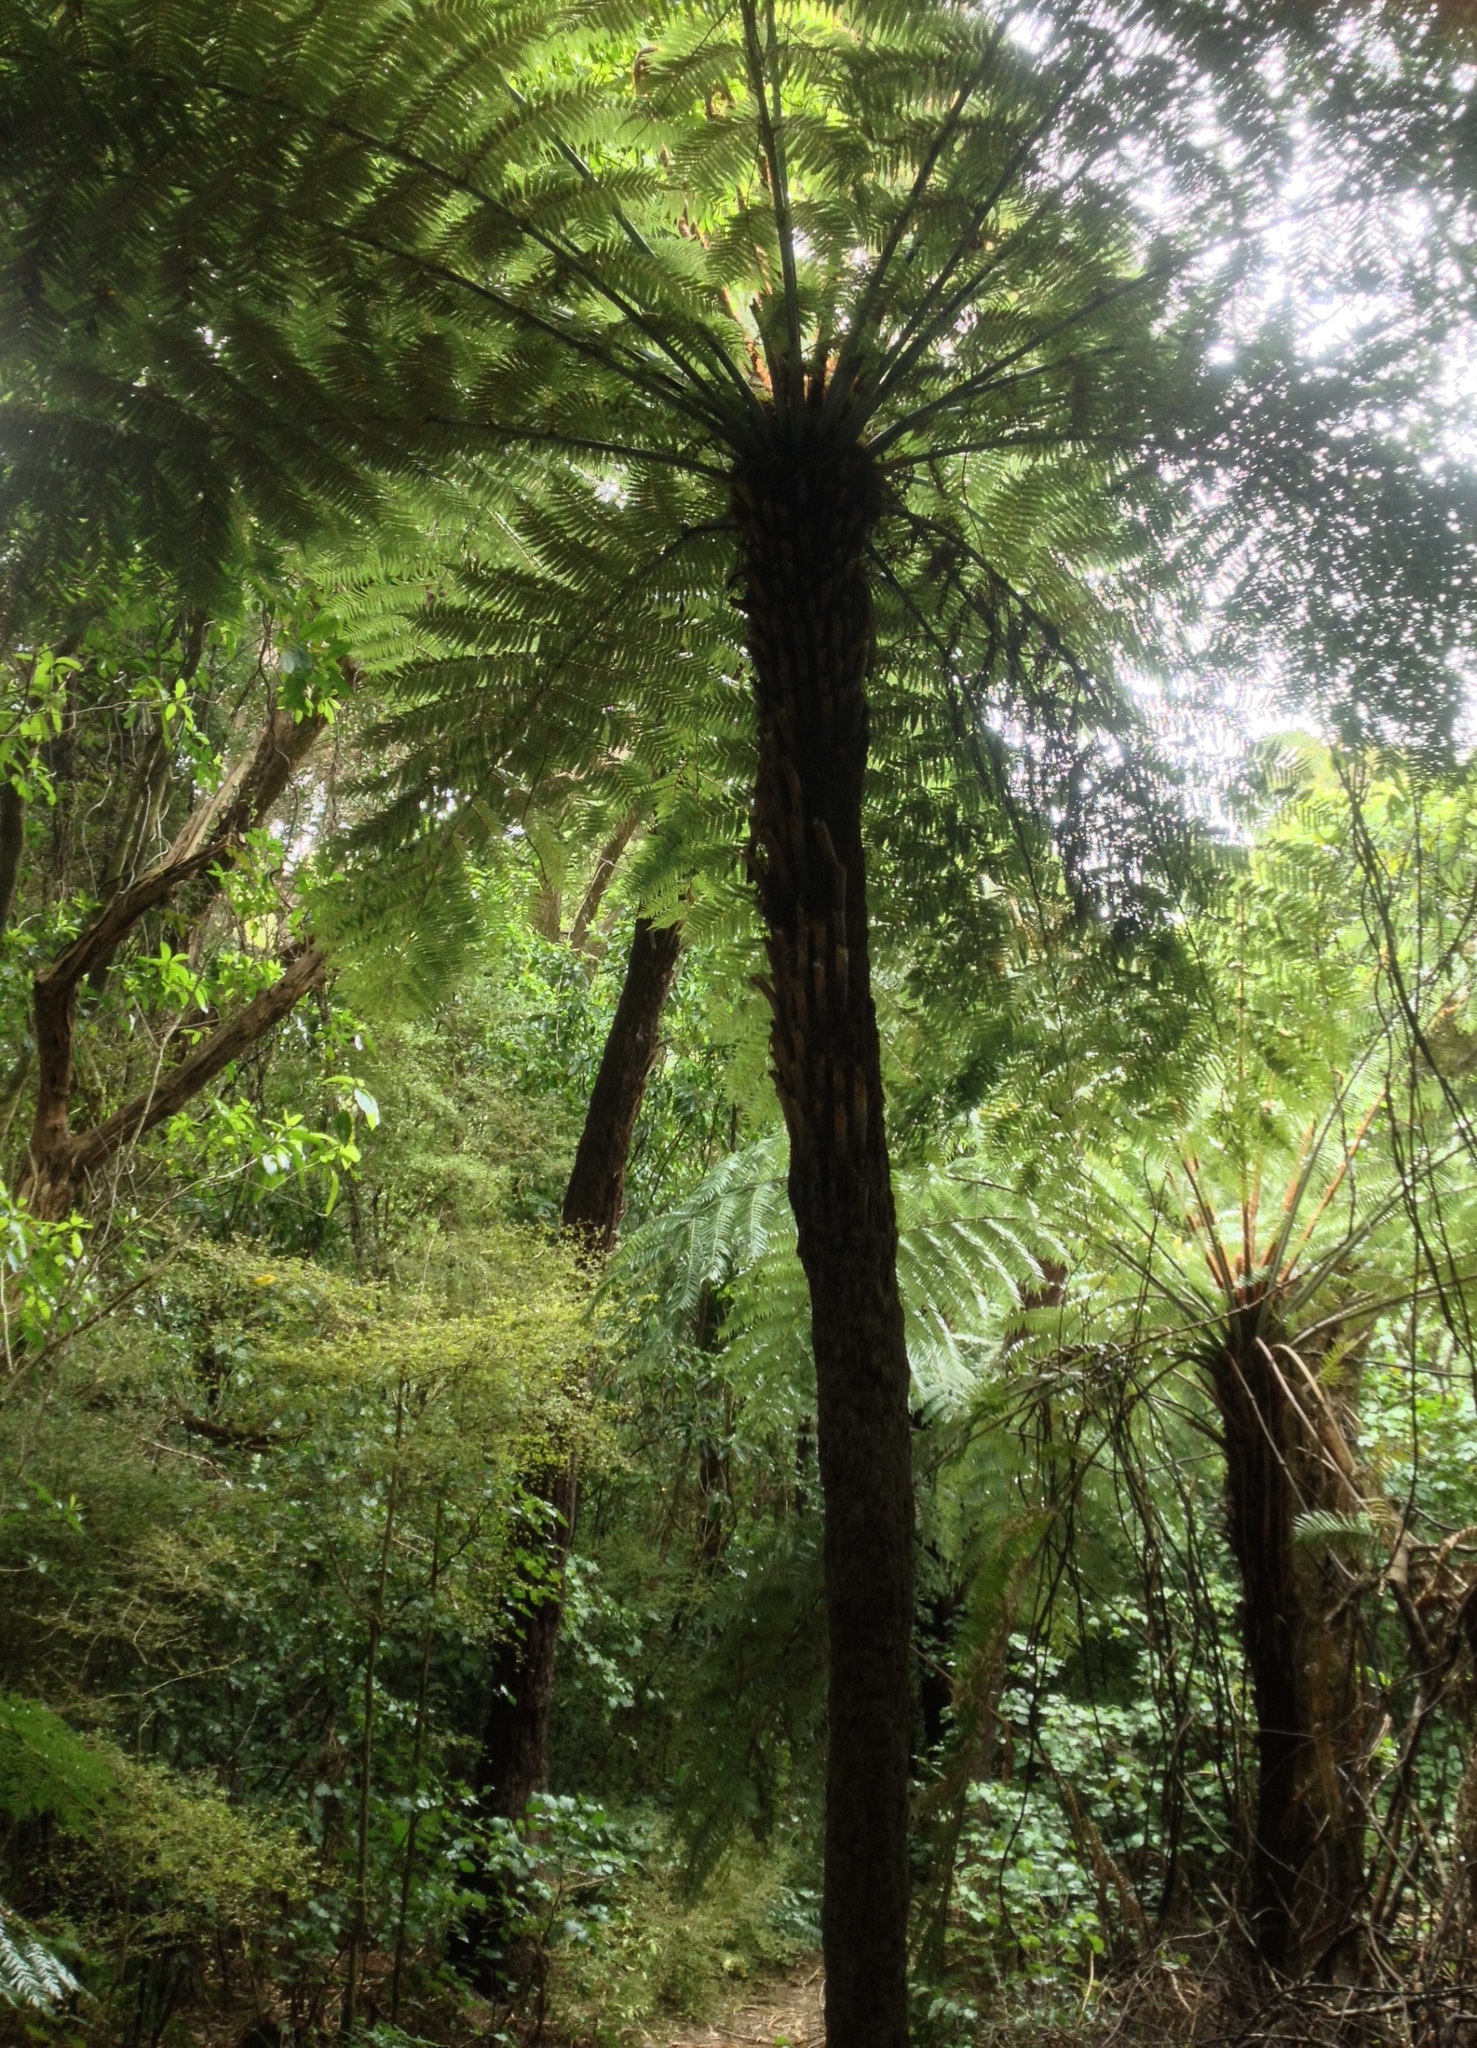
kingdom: Plantae
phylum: Tracheophyta
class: Polypodiopsida
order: Cyatheales
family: Cyatheaceae
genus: Alsophila
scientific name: Alsophila dealbata
